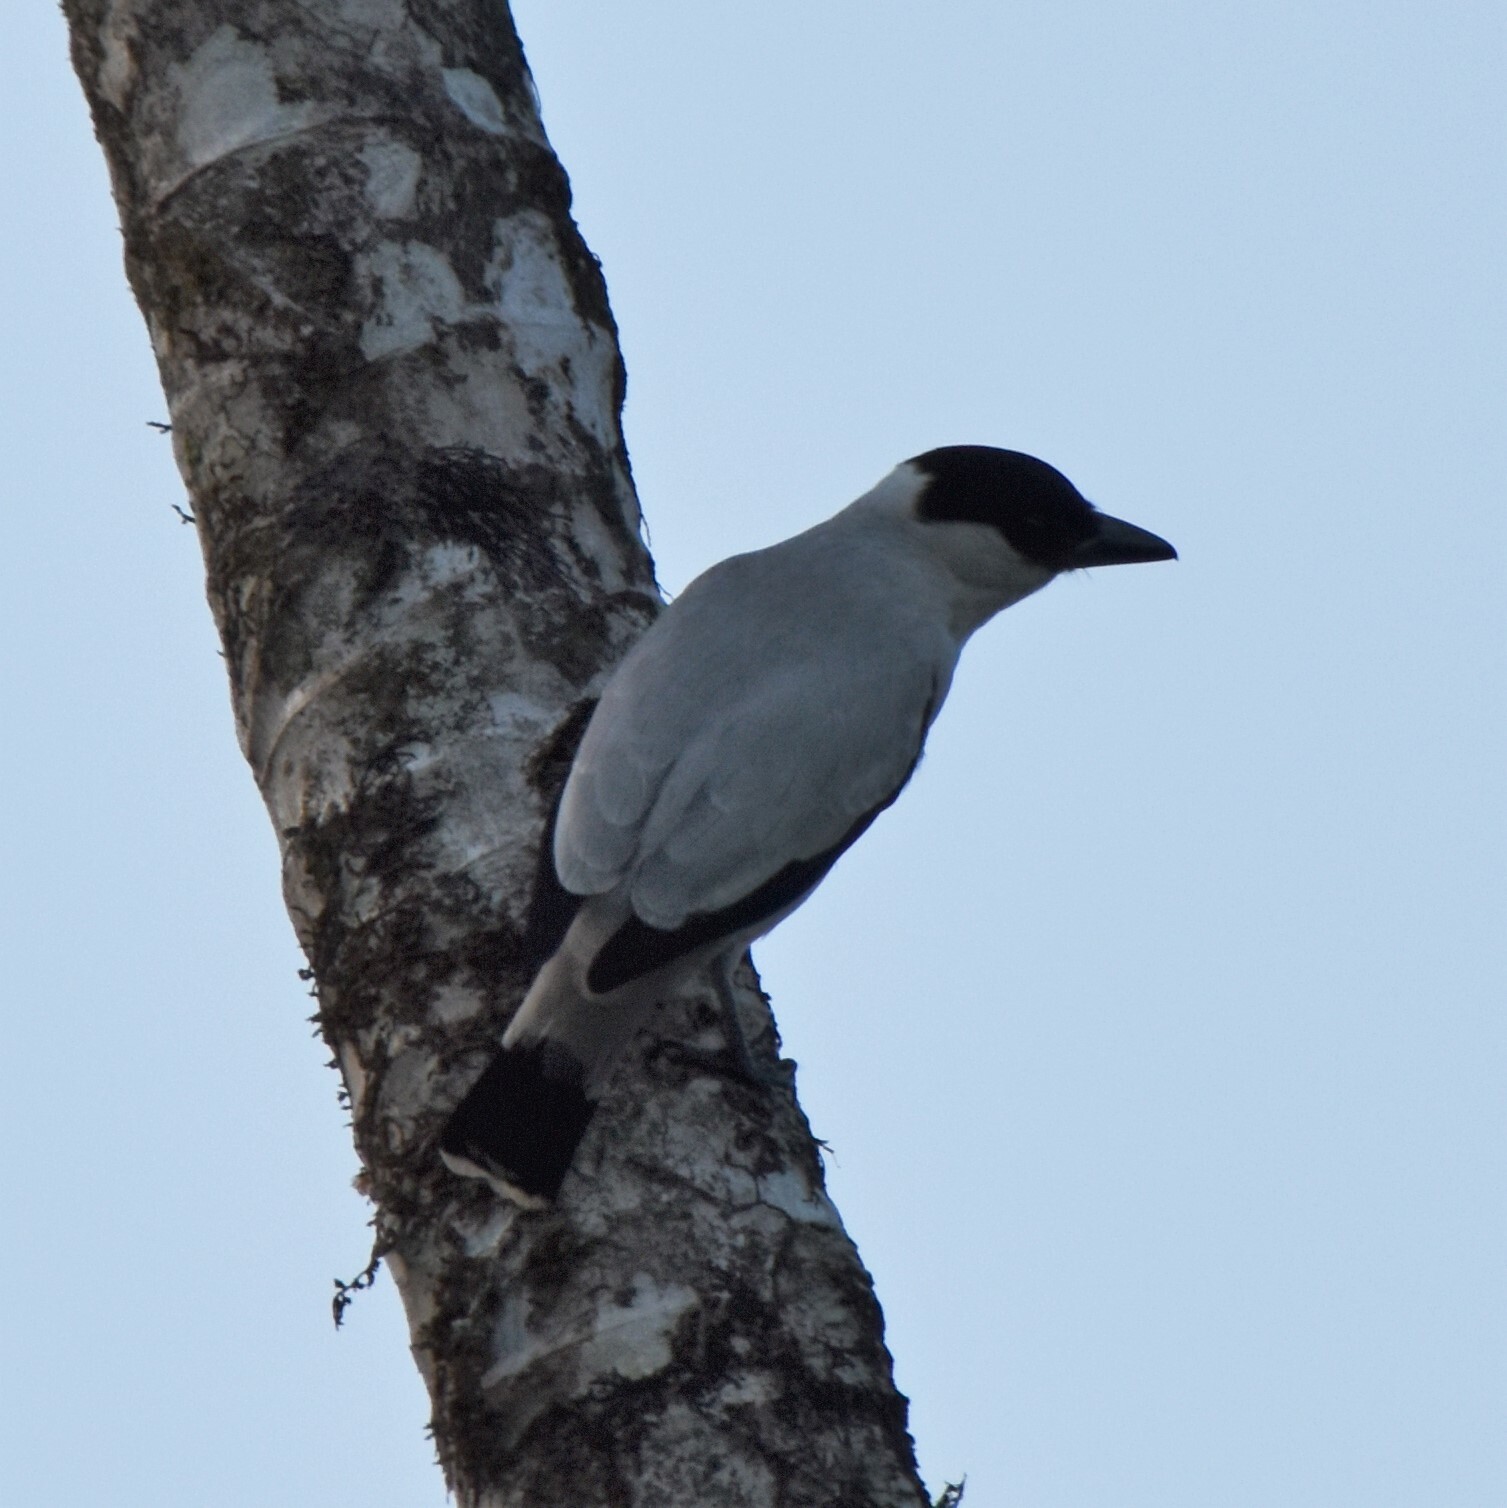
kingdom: Animalia
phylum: Chordata
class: Aves
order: Passeriformes
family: Cotingidae
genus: Tityra
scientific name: Tityra inquisitor
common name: Black-crowned tityra
